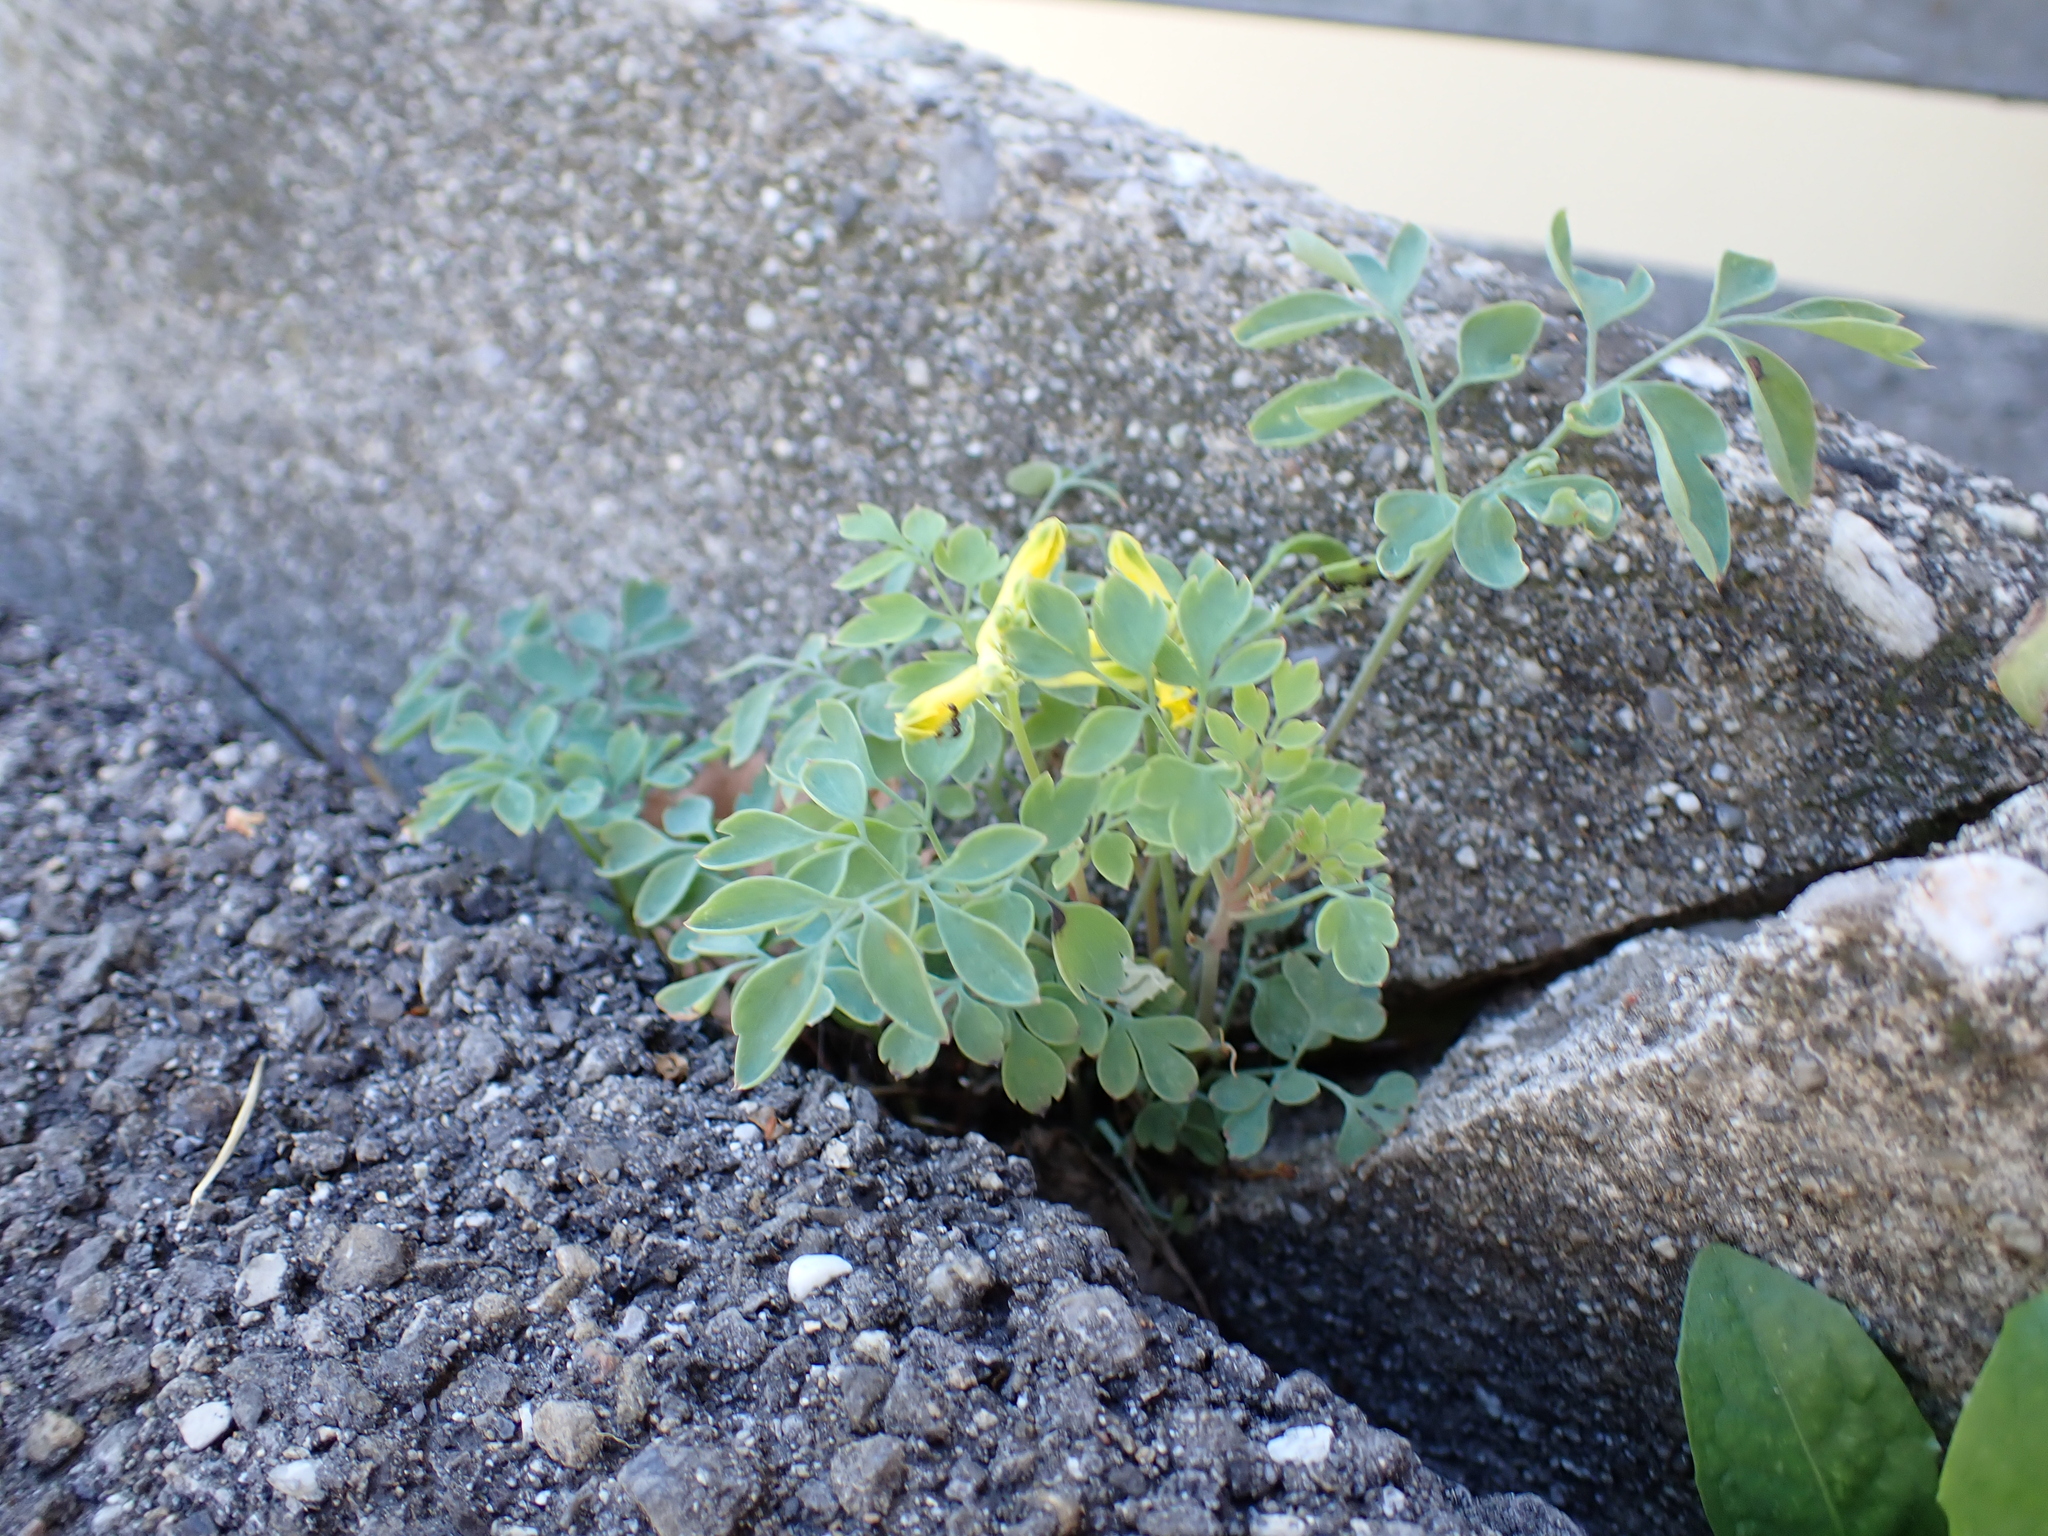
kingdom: Plantae
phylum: Tracheophyta
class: Magnoliopsida
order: Ranunculales
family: Papaveraceae
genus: Pseudofumaria
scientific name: Pseudofumaria lutea
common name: Yellow corydalis
